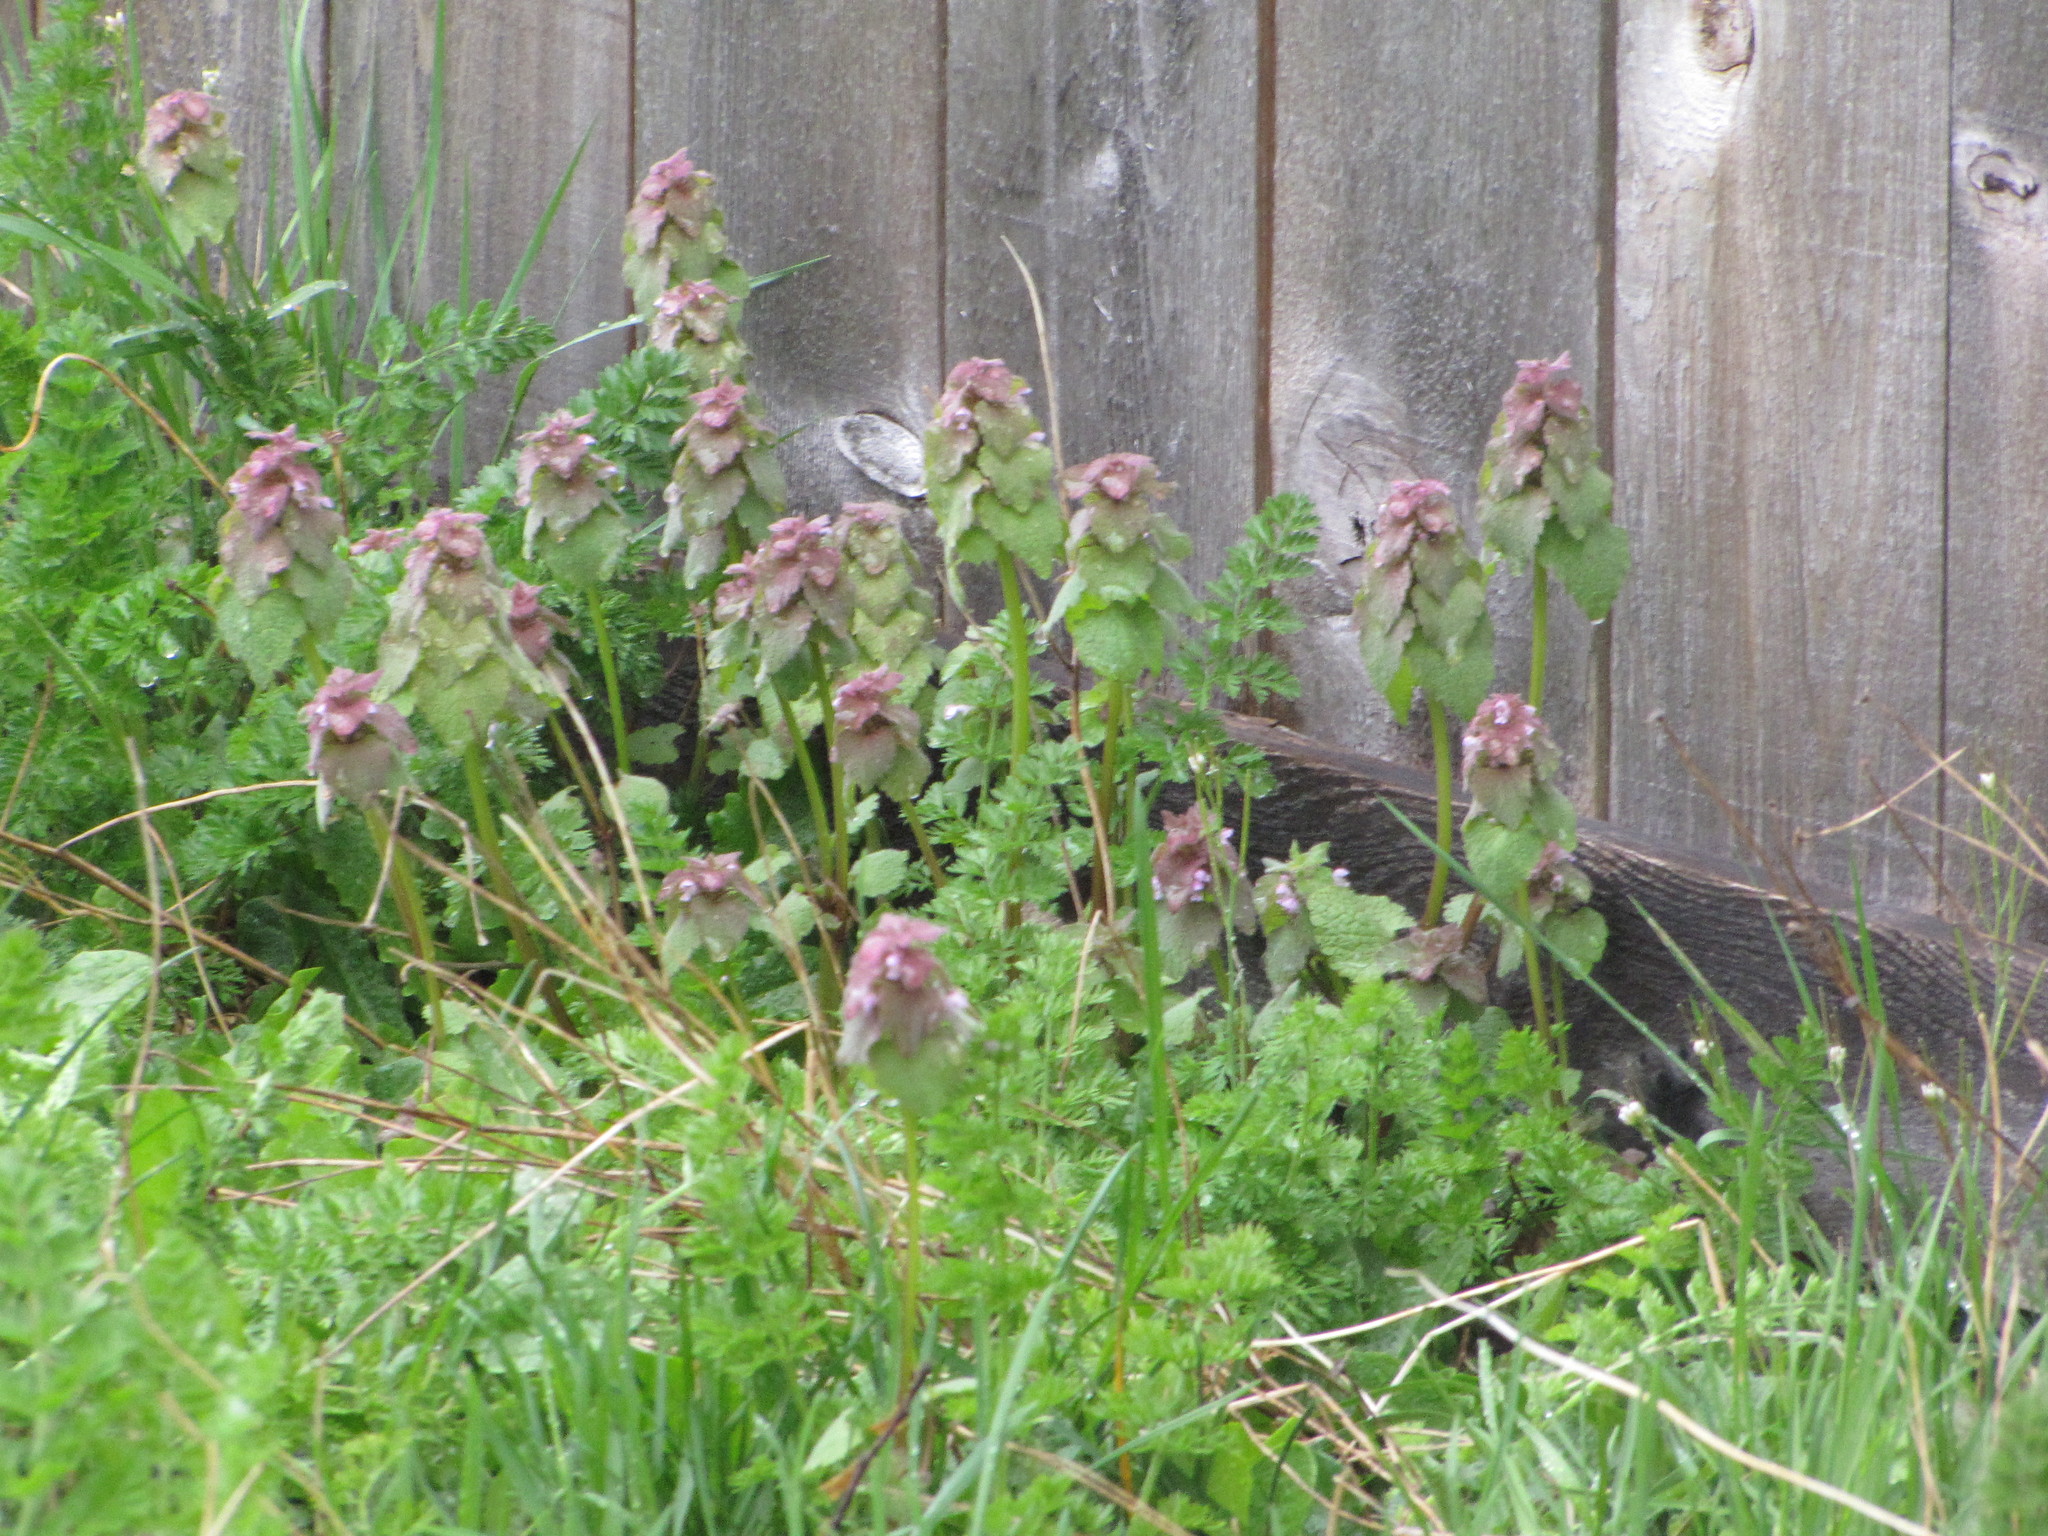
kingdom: Plantae
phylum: Tracheophyta
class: Magnoliopsida
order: Lamiales
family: Lamiaceae
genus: Lamium
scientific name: Lamium purpureum
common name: Red dead-nettle
